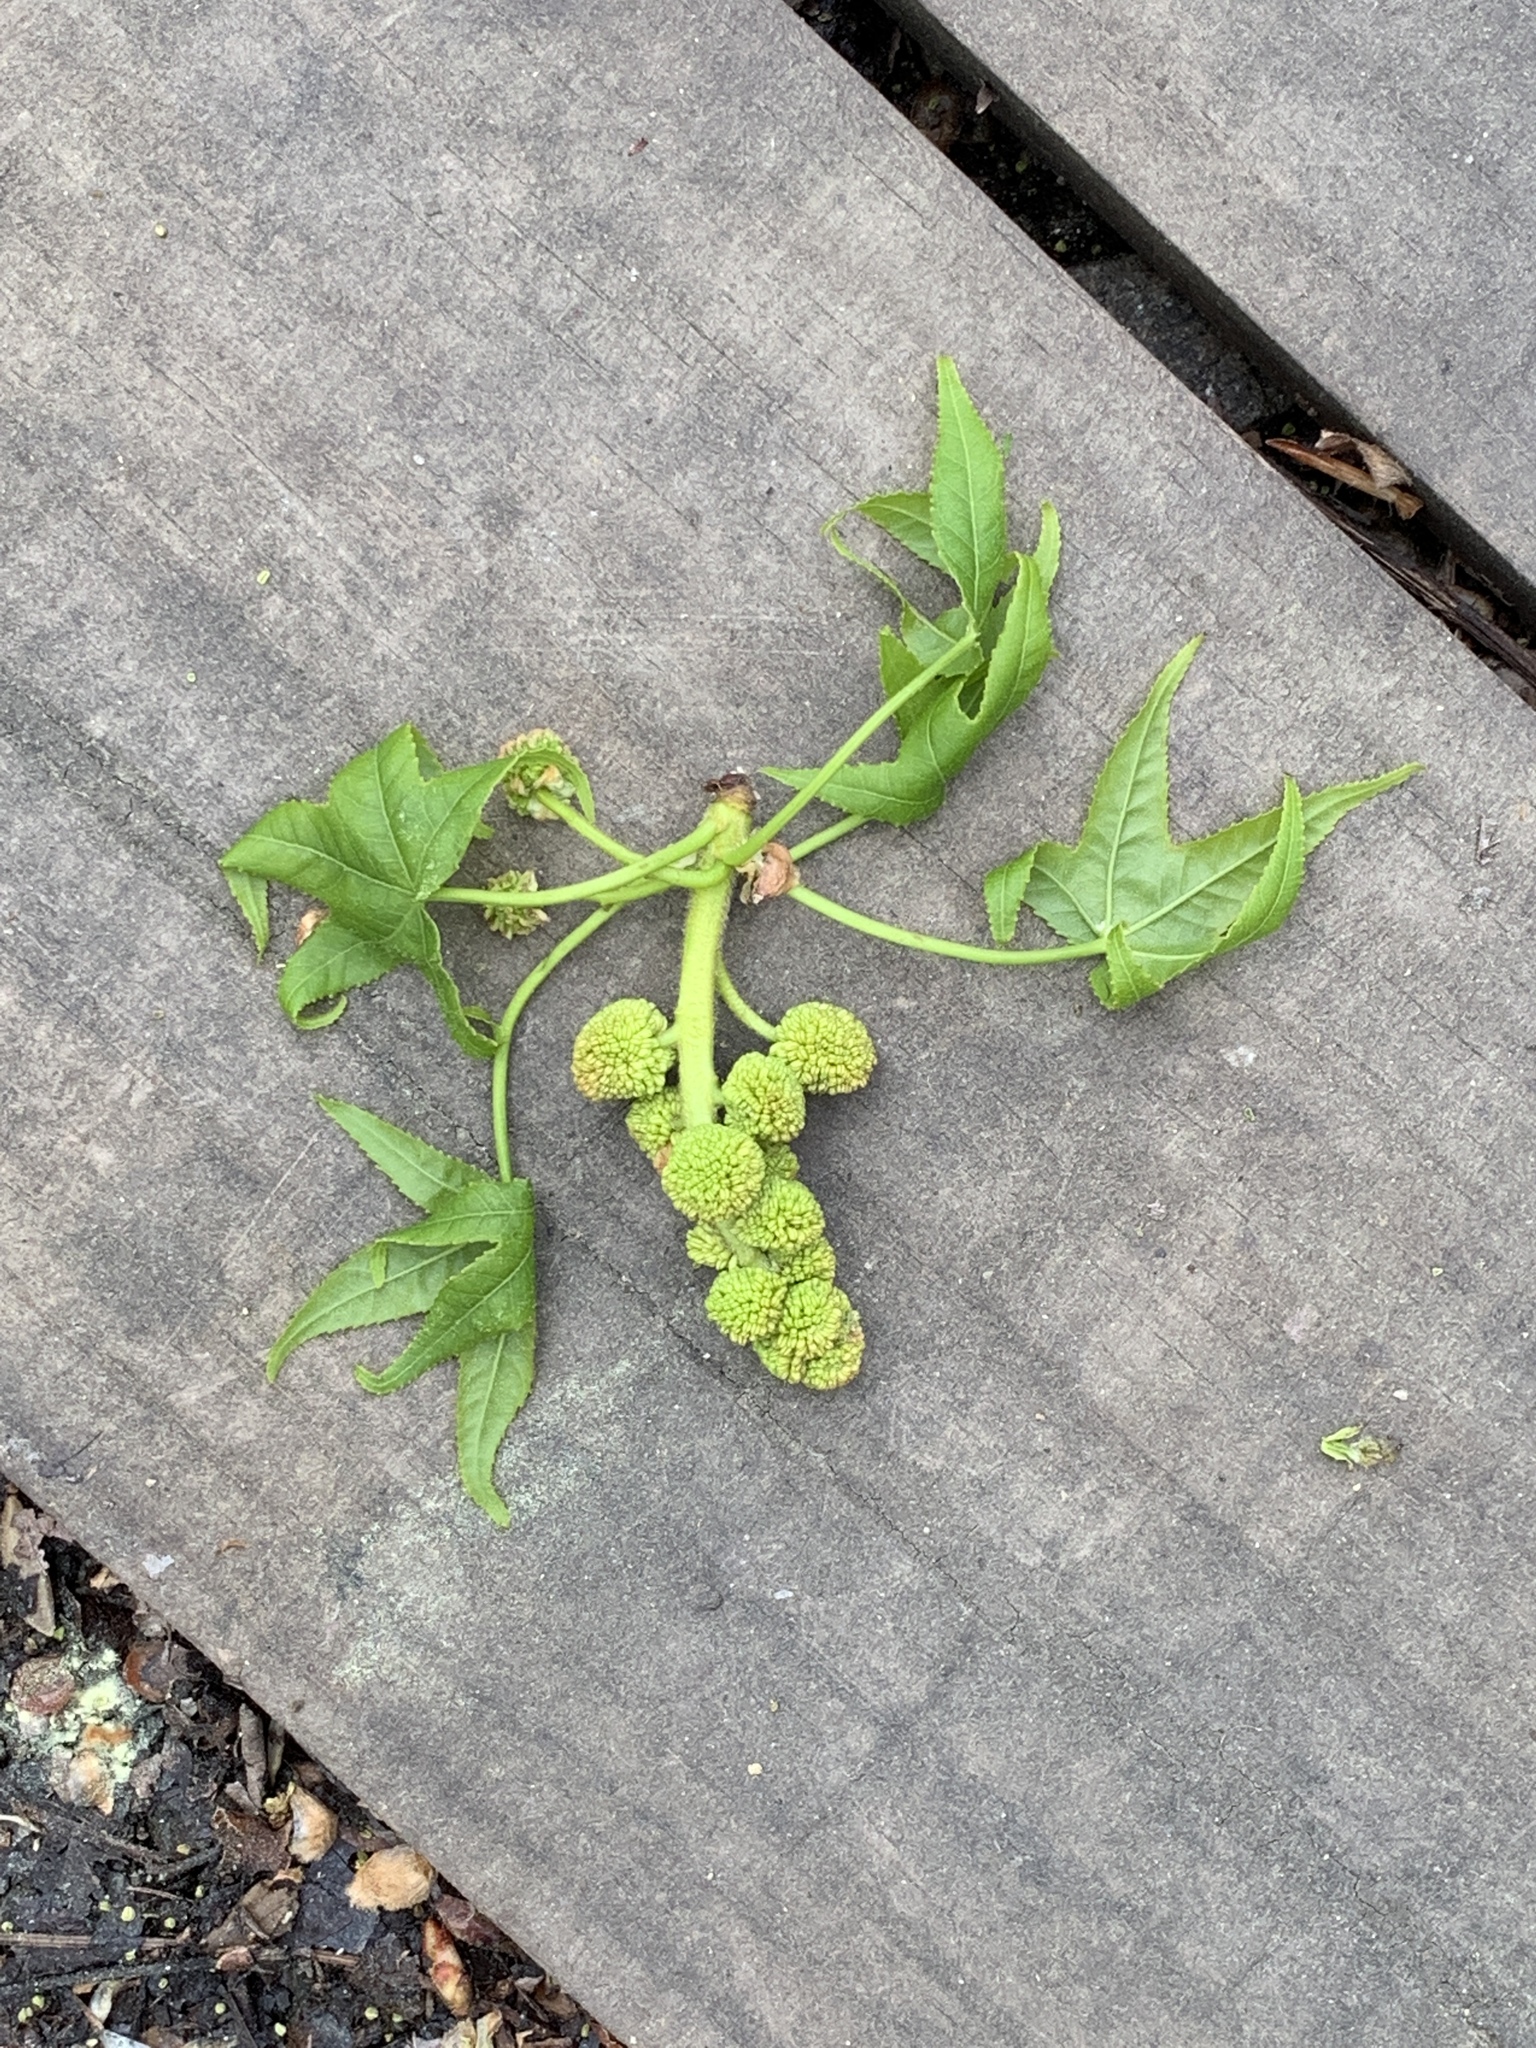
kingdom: Plantae
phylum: Tracheophyta
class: Magnoliopsida
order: Saxifragales
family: Altingiaceae
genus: Liquidambar
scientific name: Liquidambar styraciflua
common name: Sweet gum
